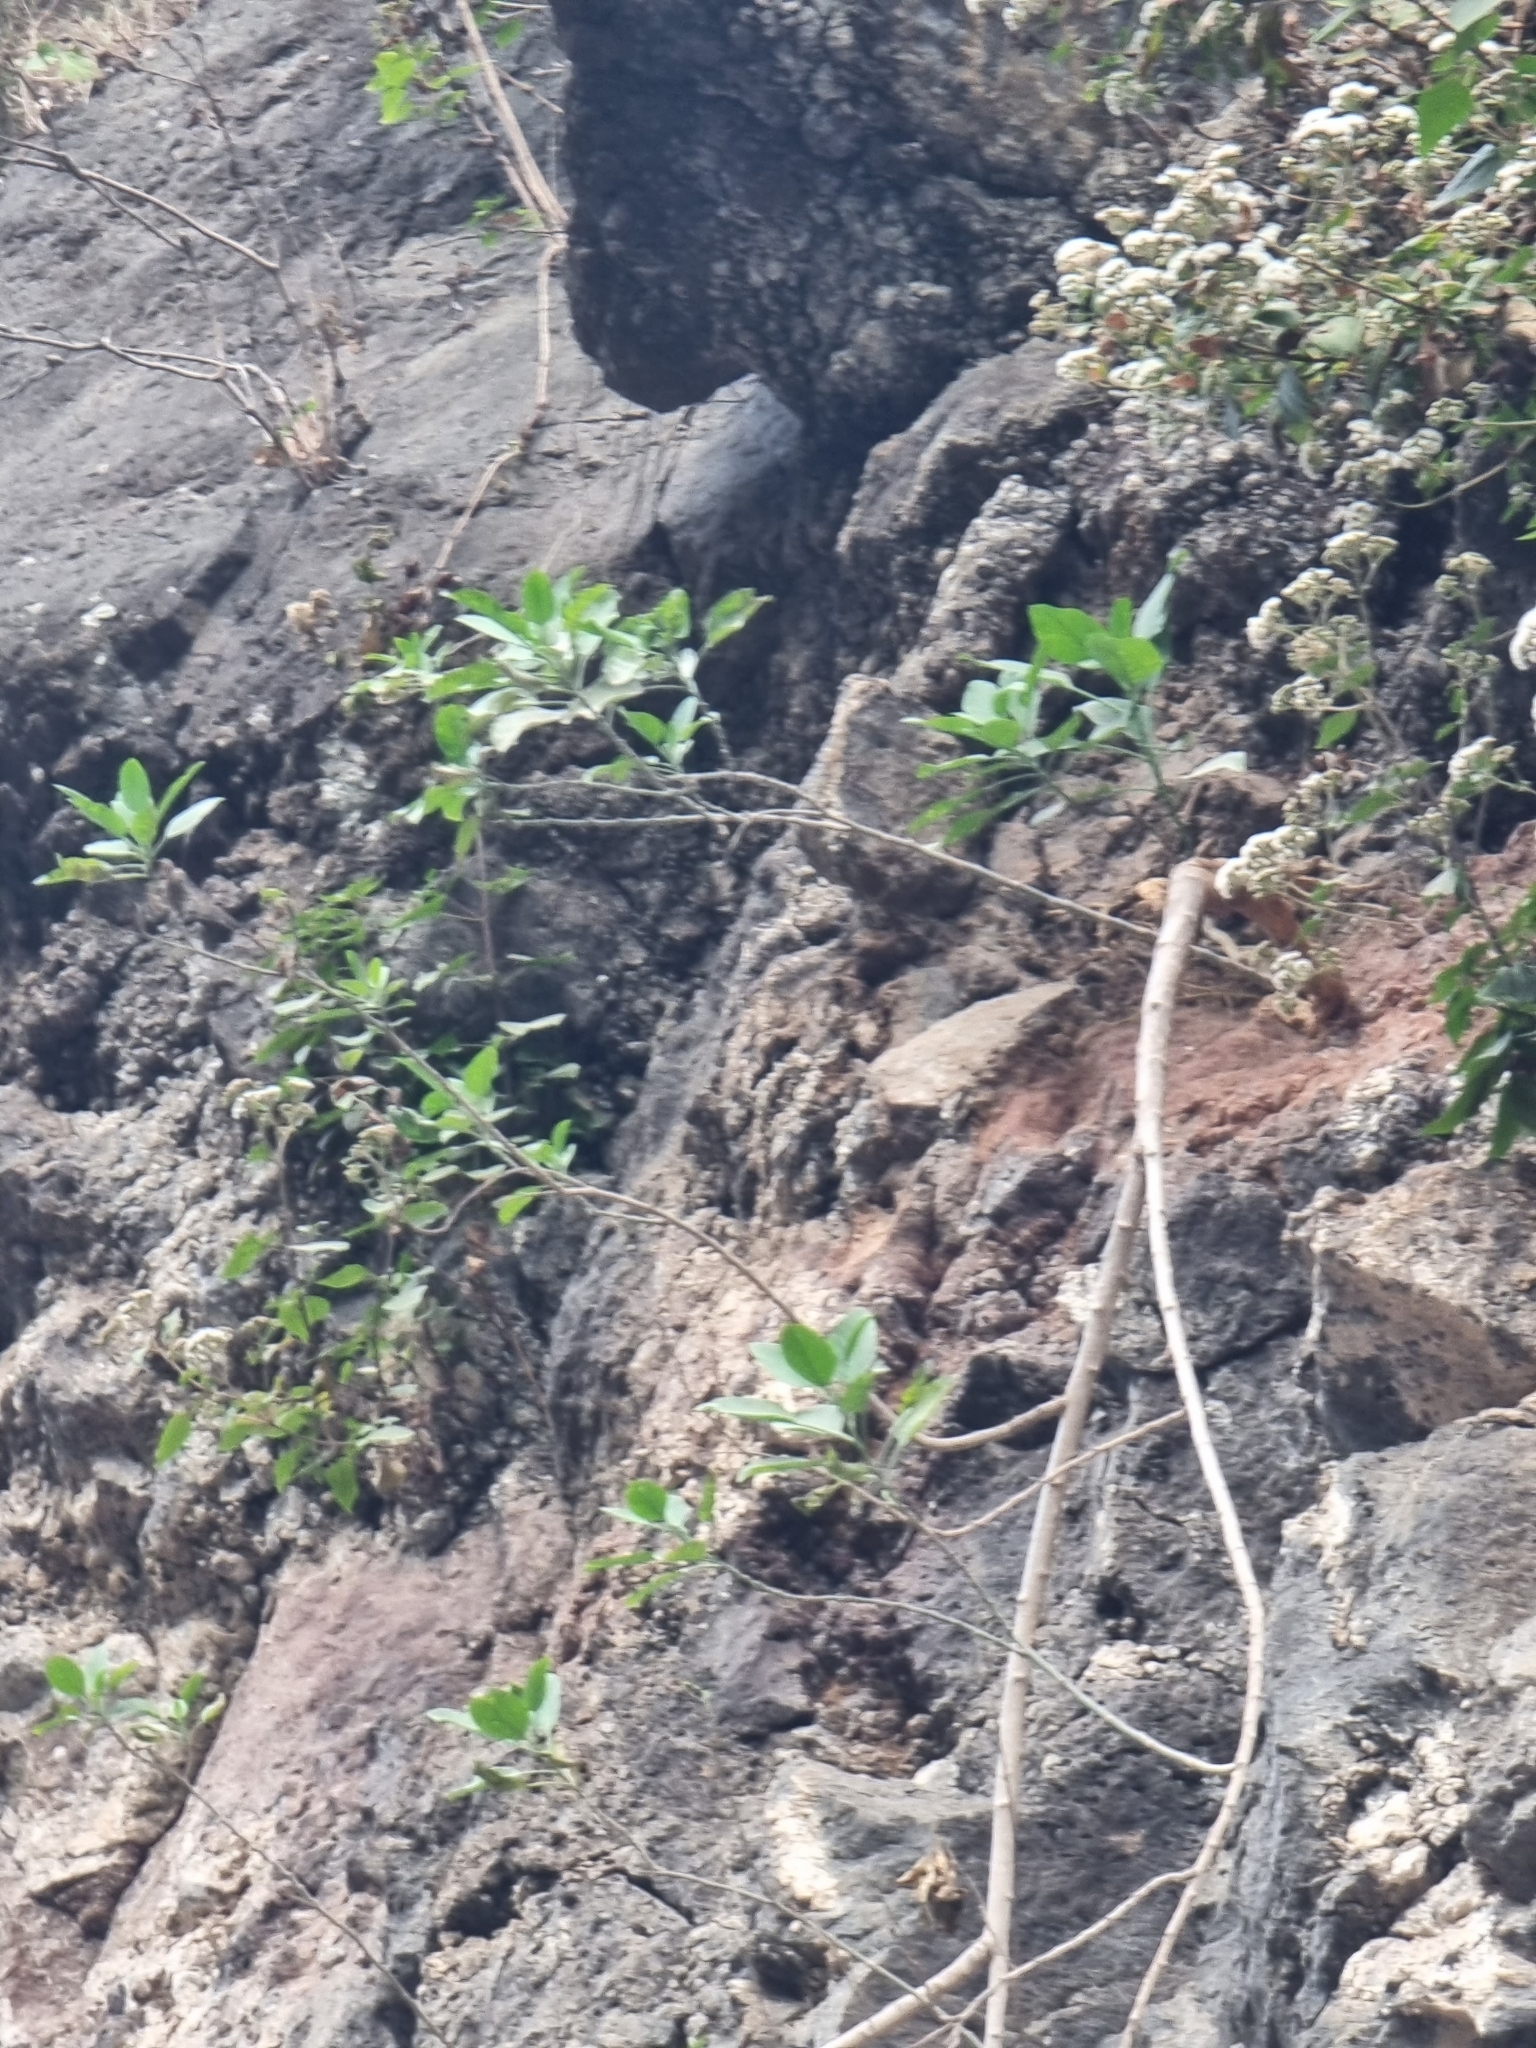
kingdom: Plantae
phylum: Tracheophyta
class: Magnoliopsida
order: Solanales
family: Solanaceae
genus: Nicotiana
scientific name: Nicotiana glauca
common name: Tree tobacco
